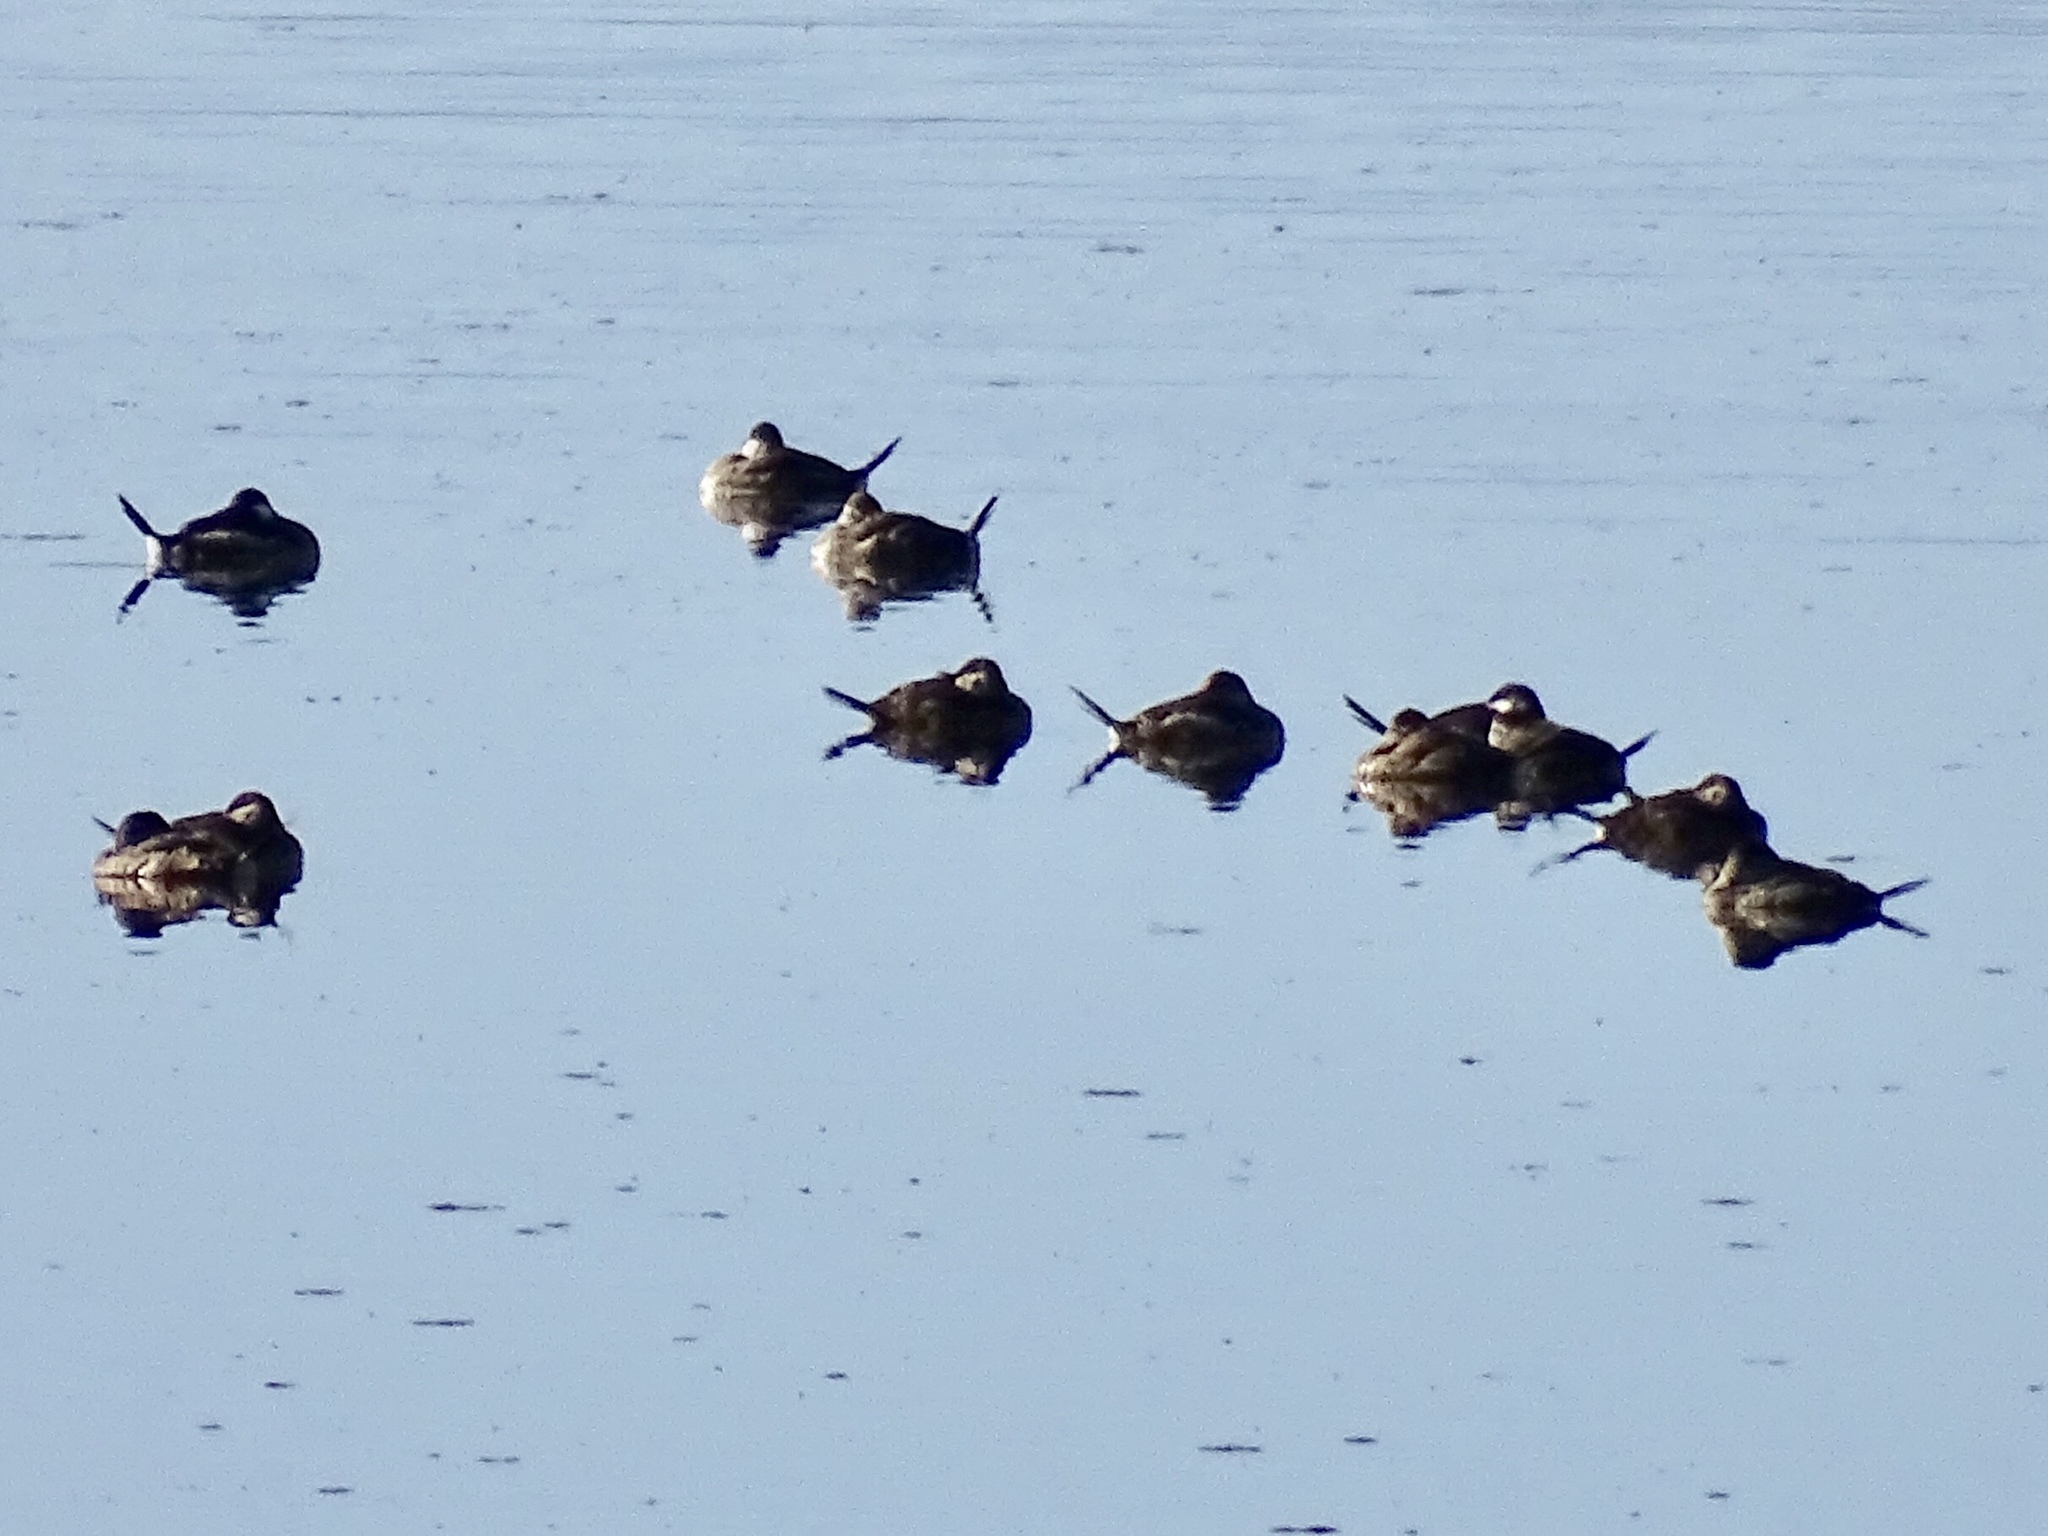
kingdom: Animalia
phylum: Chordata
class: Aves
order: Anseriformes
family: Anatidae
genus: Oxyura
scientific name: Oxyura jamaicensis
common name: Ruddy duck
